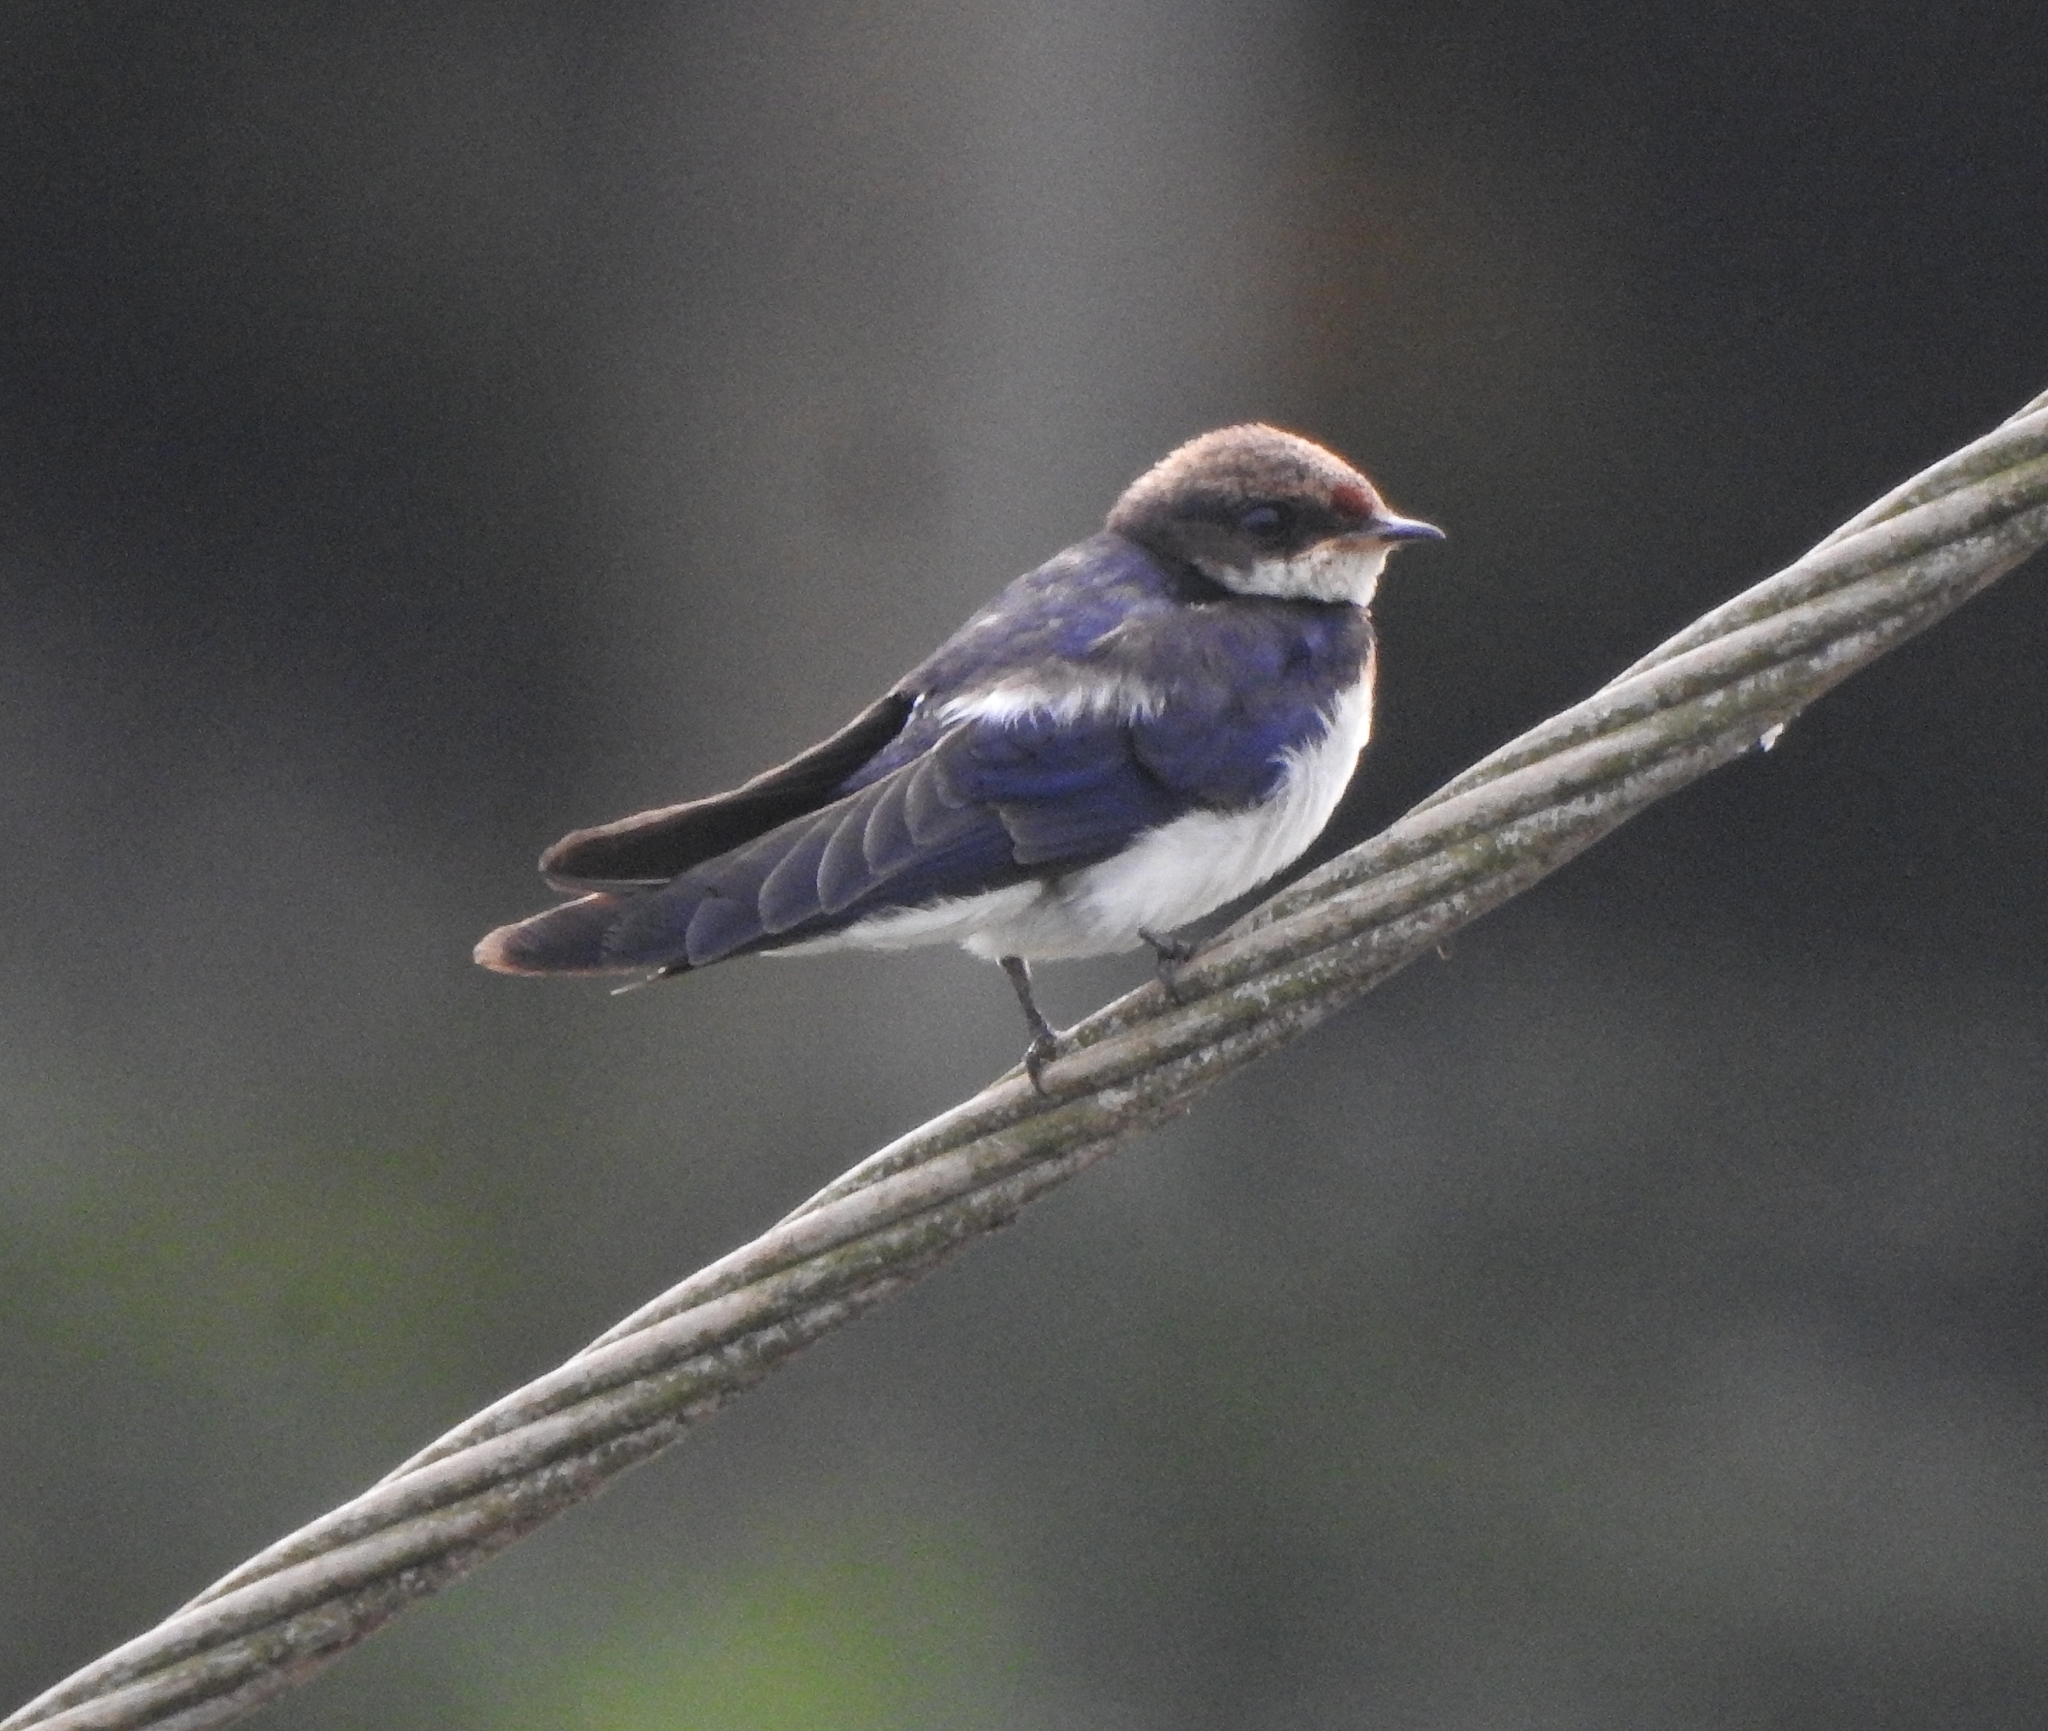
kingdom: Animalia
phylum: Chordata
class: Aves
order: Passeriformes
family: Hirundinidae
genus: Hirundo
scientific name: Hirundo smithii
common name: Wire-tailed swallow
